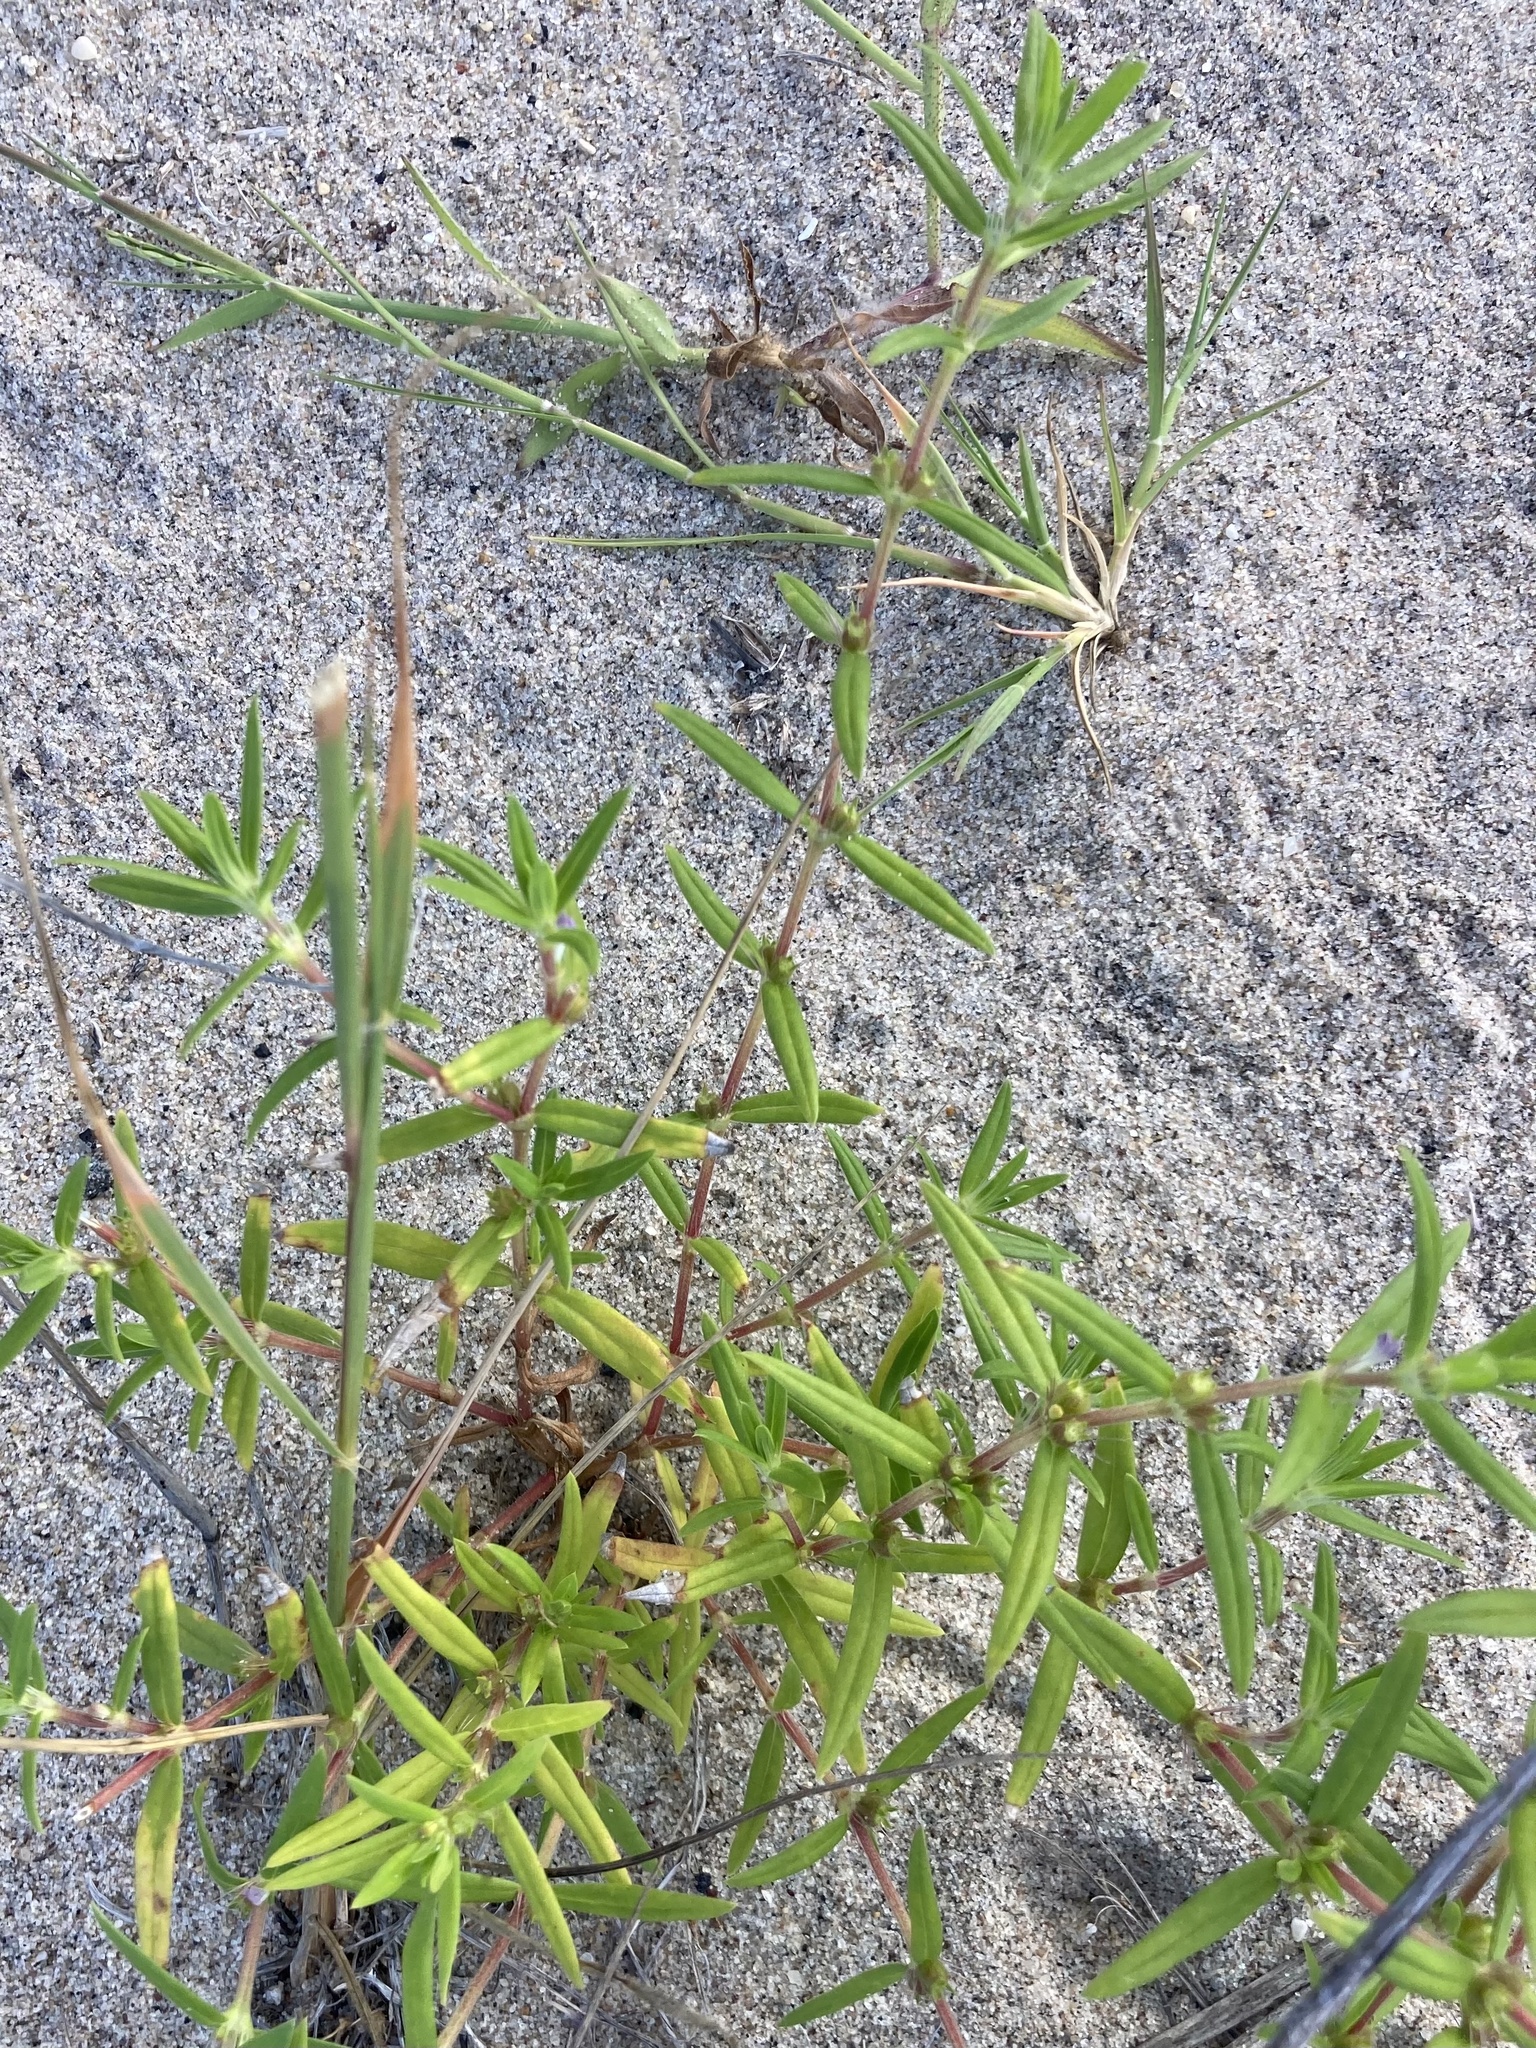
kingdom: Plantae
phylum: Tracheophyta
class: Magnoliopsida
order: Gentianales
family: Rubiaceae
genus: Hexasepalum
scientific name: Hexasepalum teres
